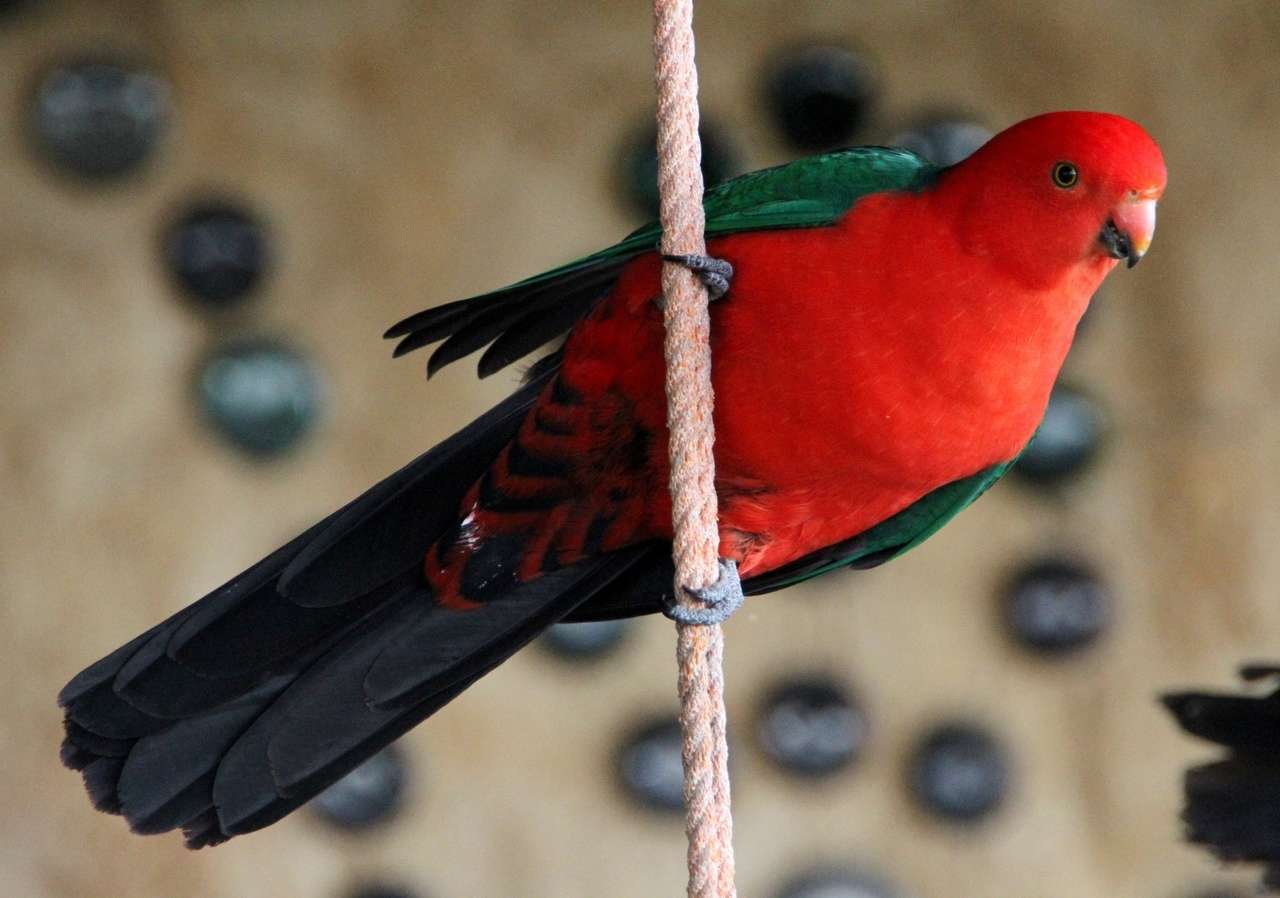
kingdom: Animalia
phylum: Chordata
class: Aves
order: Psittaciformes
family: Psittacidae
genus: Alisterus
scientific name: Alisterus scapularis
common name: Australian king parrot
